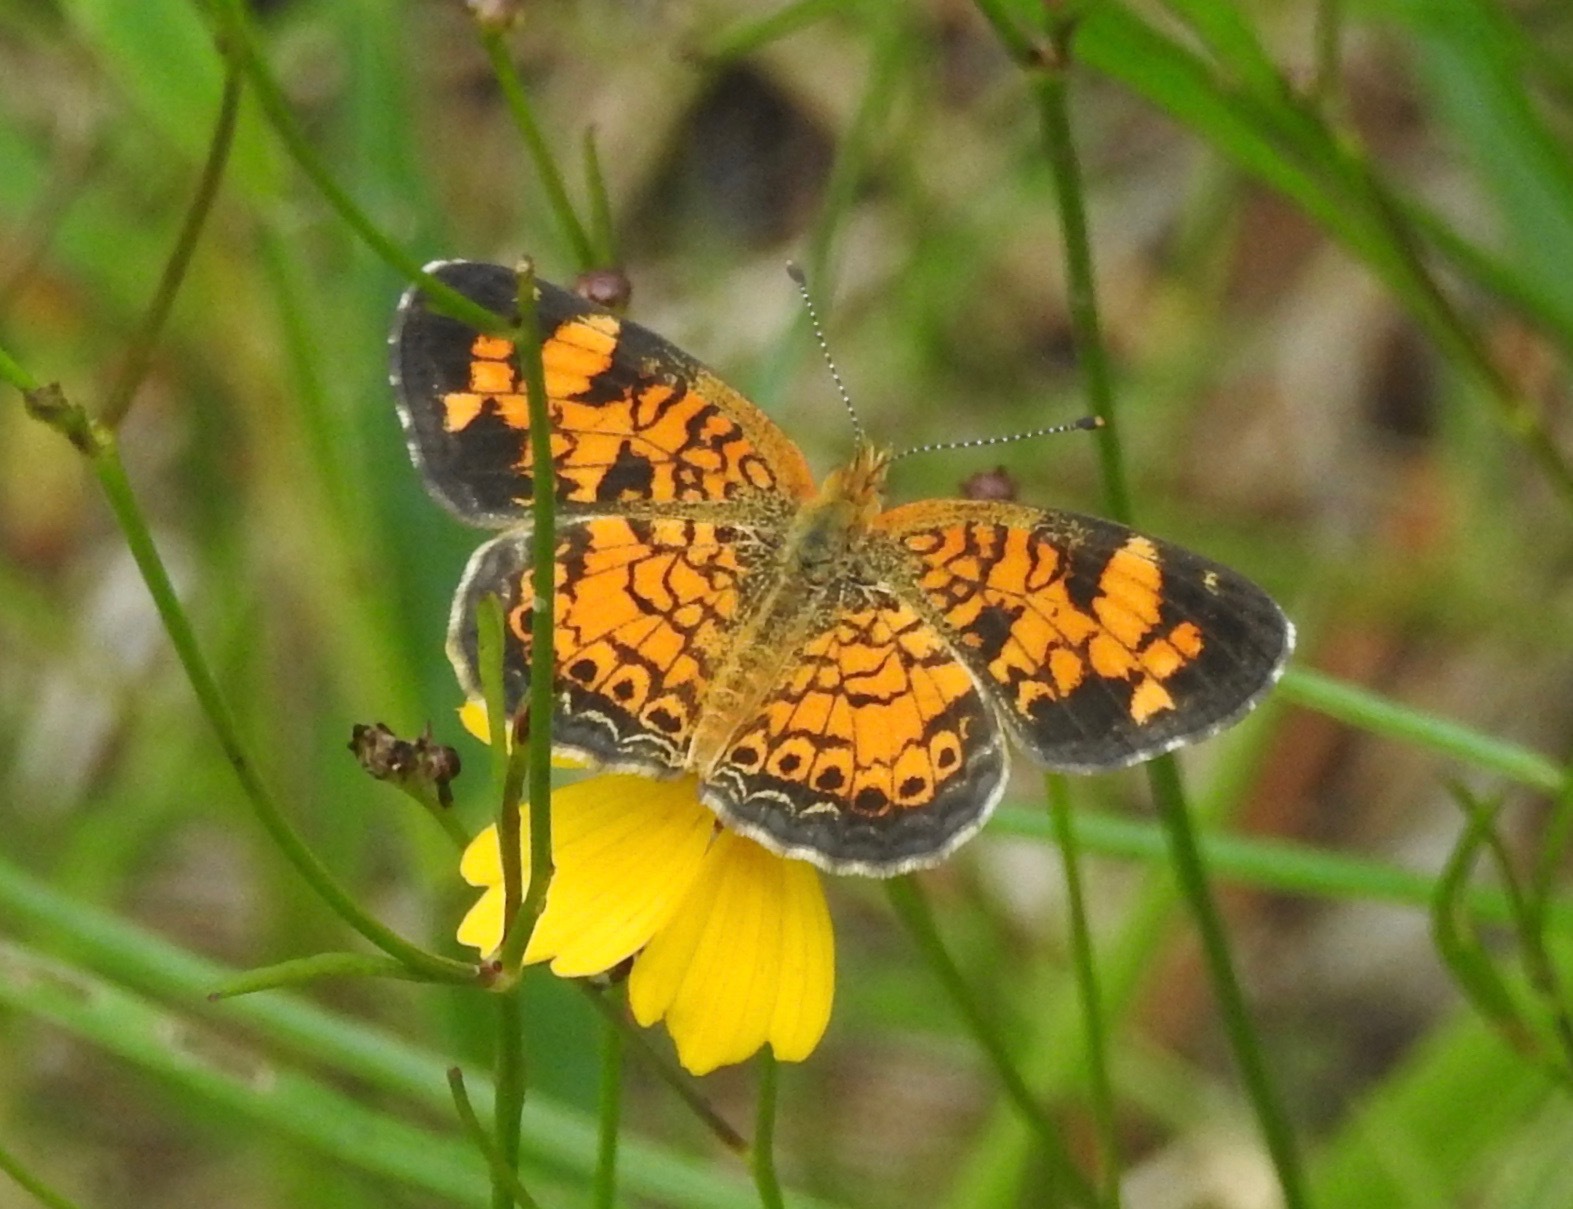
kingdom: Animalia
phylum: Arthropoda
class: Insecta
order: Lepidoptera
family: Nymphalidae
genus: Phyciodes
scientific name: Phyciodes tharos
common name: Pearl crescent
